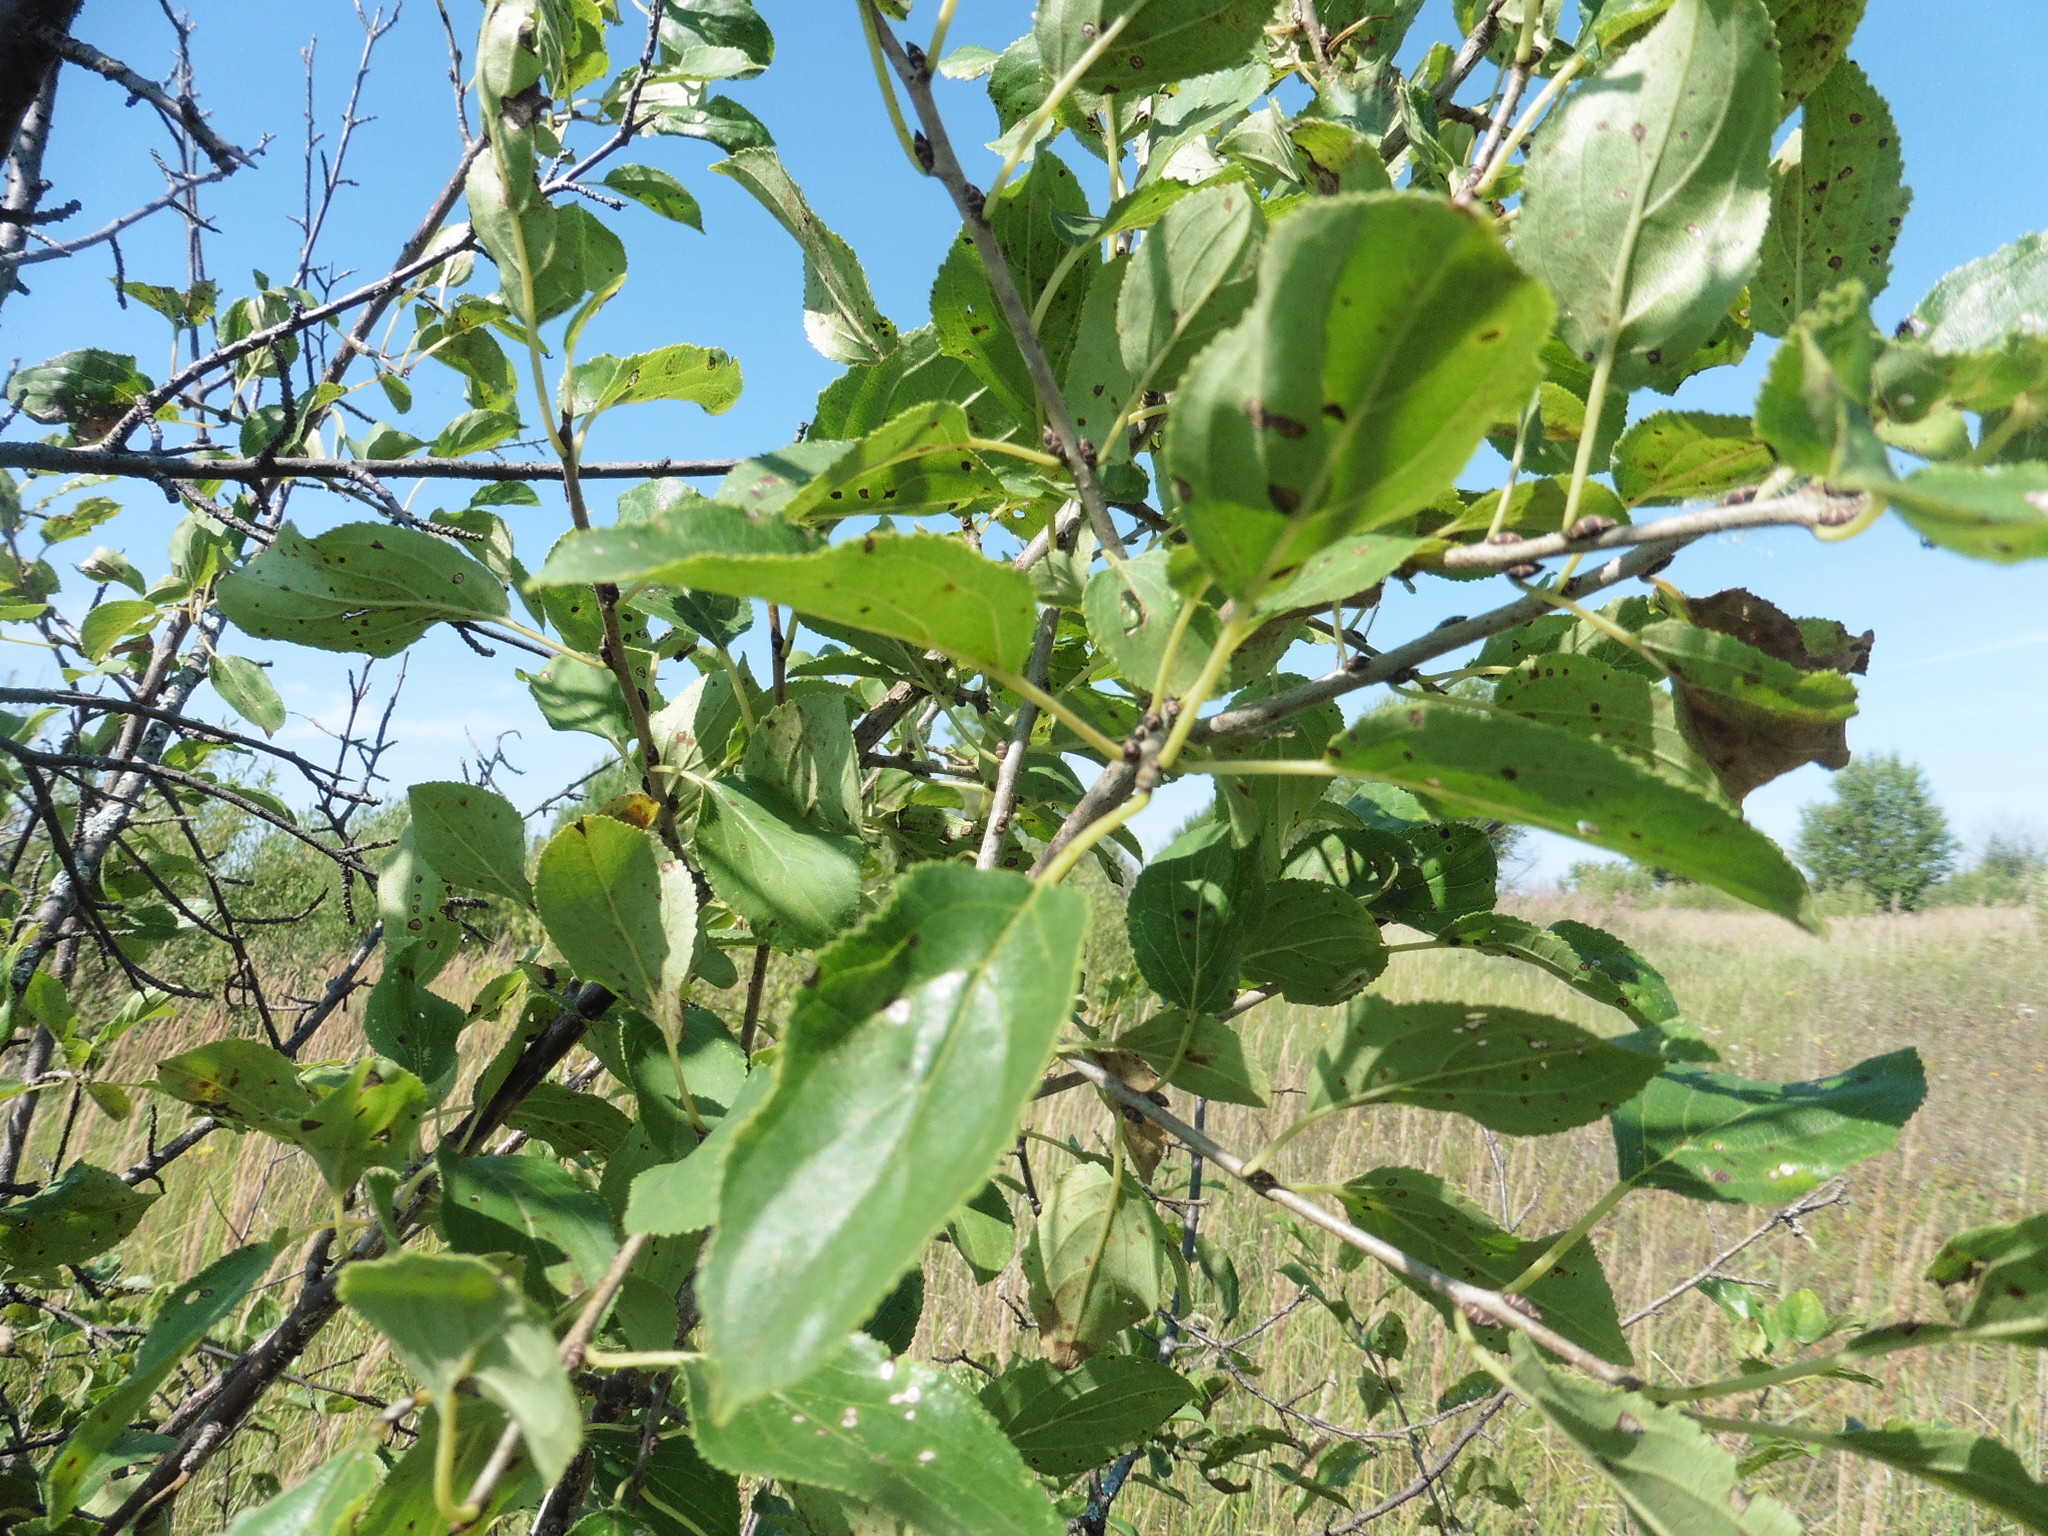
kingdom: Plantae
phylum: Tracheophyta
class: Magnoliopsida
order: Rosales
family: Rhamnaceae
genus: Rhamnus
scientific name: Rhamnus cathartica
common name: Common buckthorn
